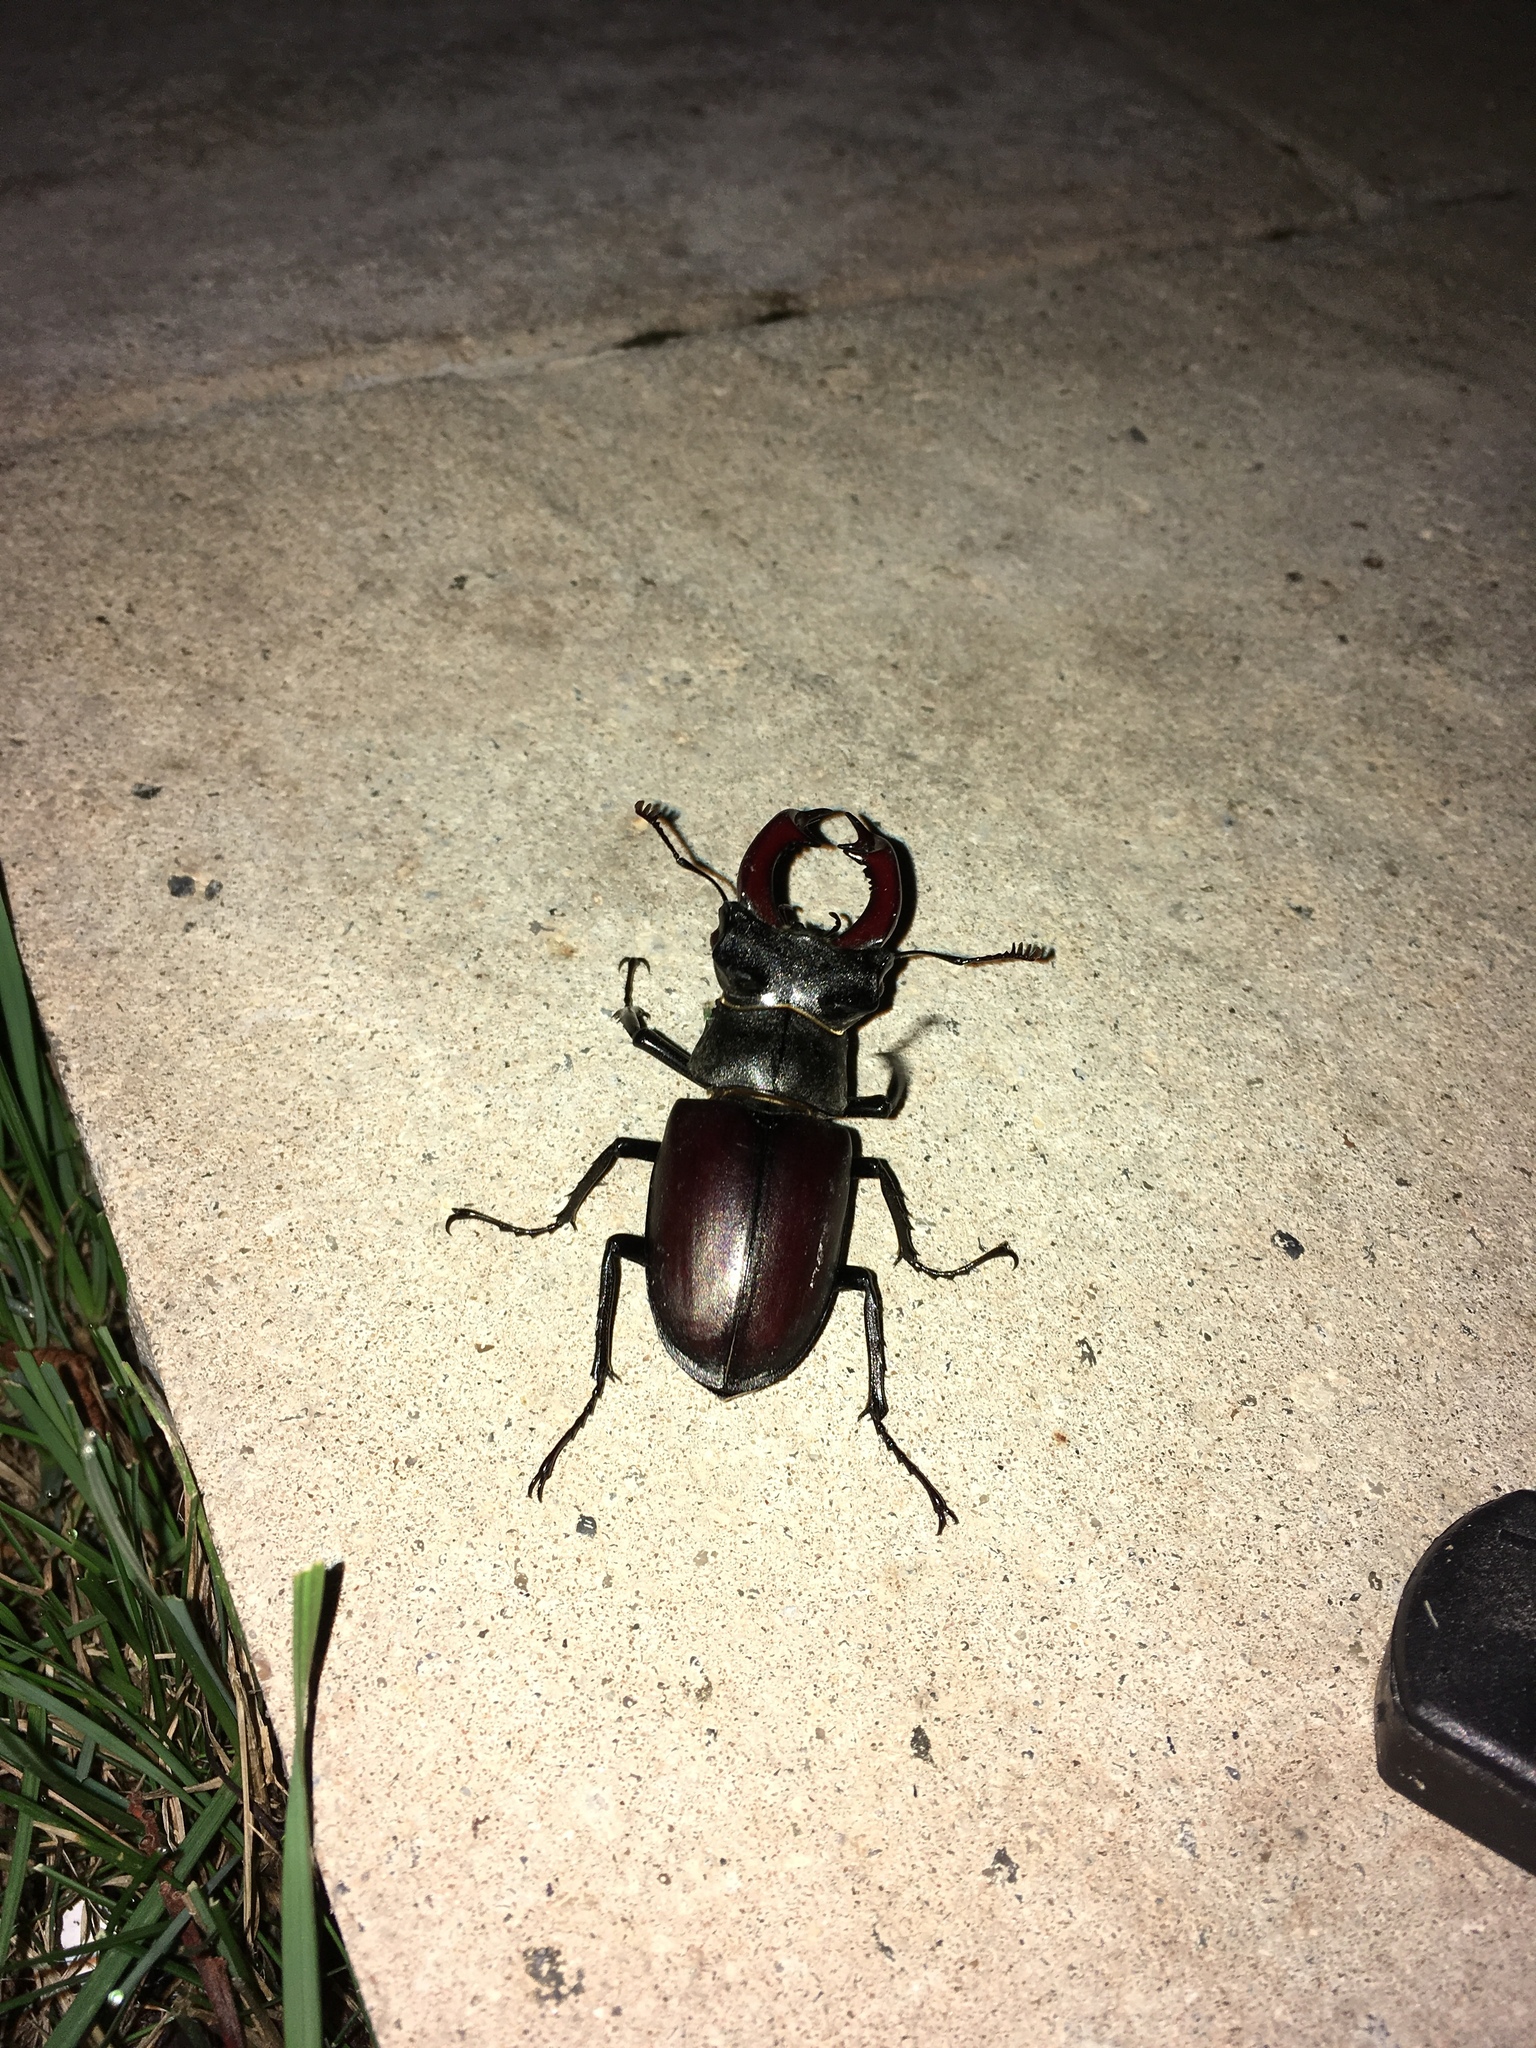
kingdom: Animalia
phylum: Arthropoda
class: Insecta
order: Coleoptera
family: Lucanidae
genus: Lucanus
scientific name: Lucanus cervus
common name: Stag beetle
